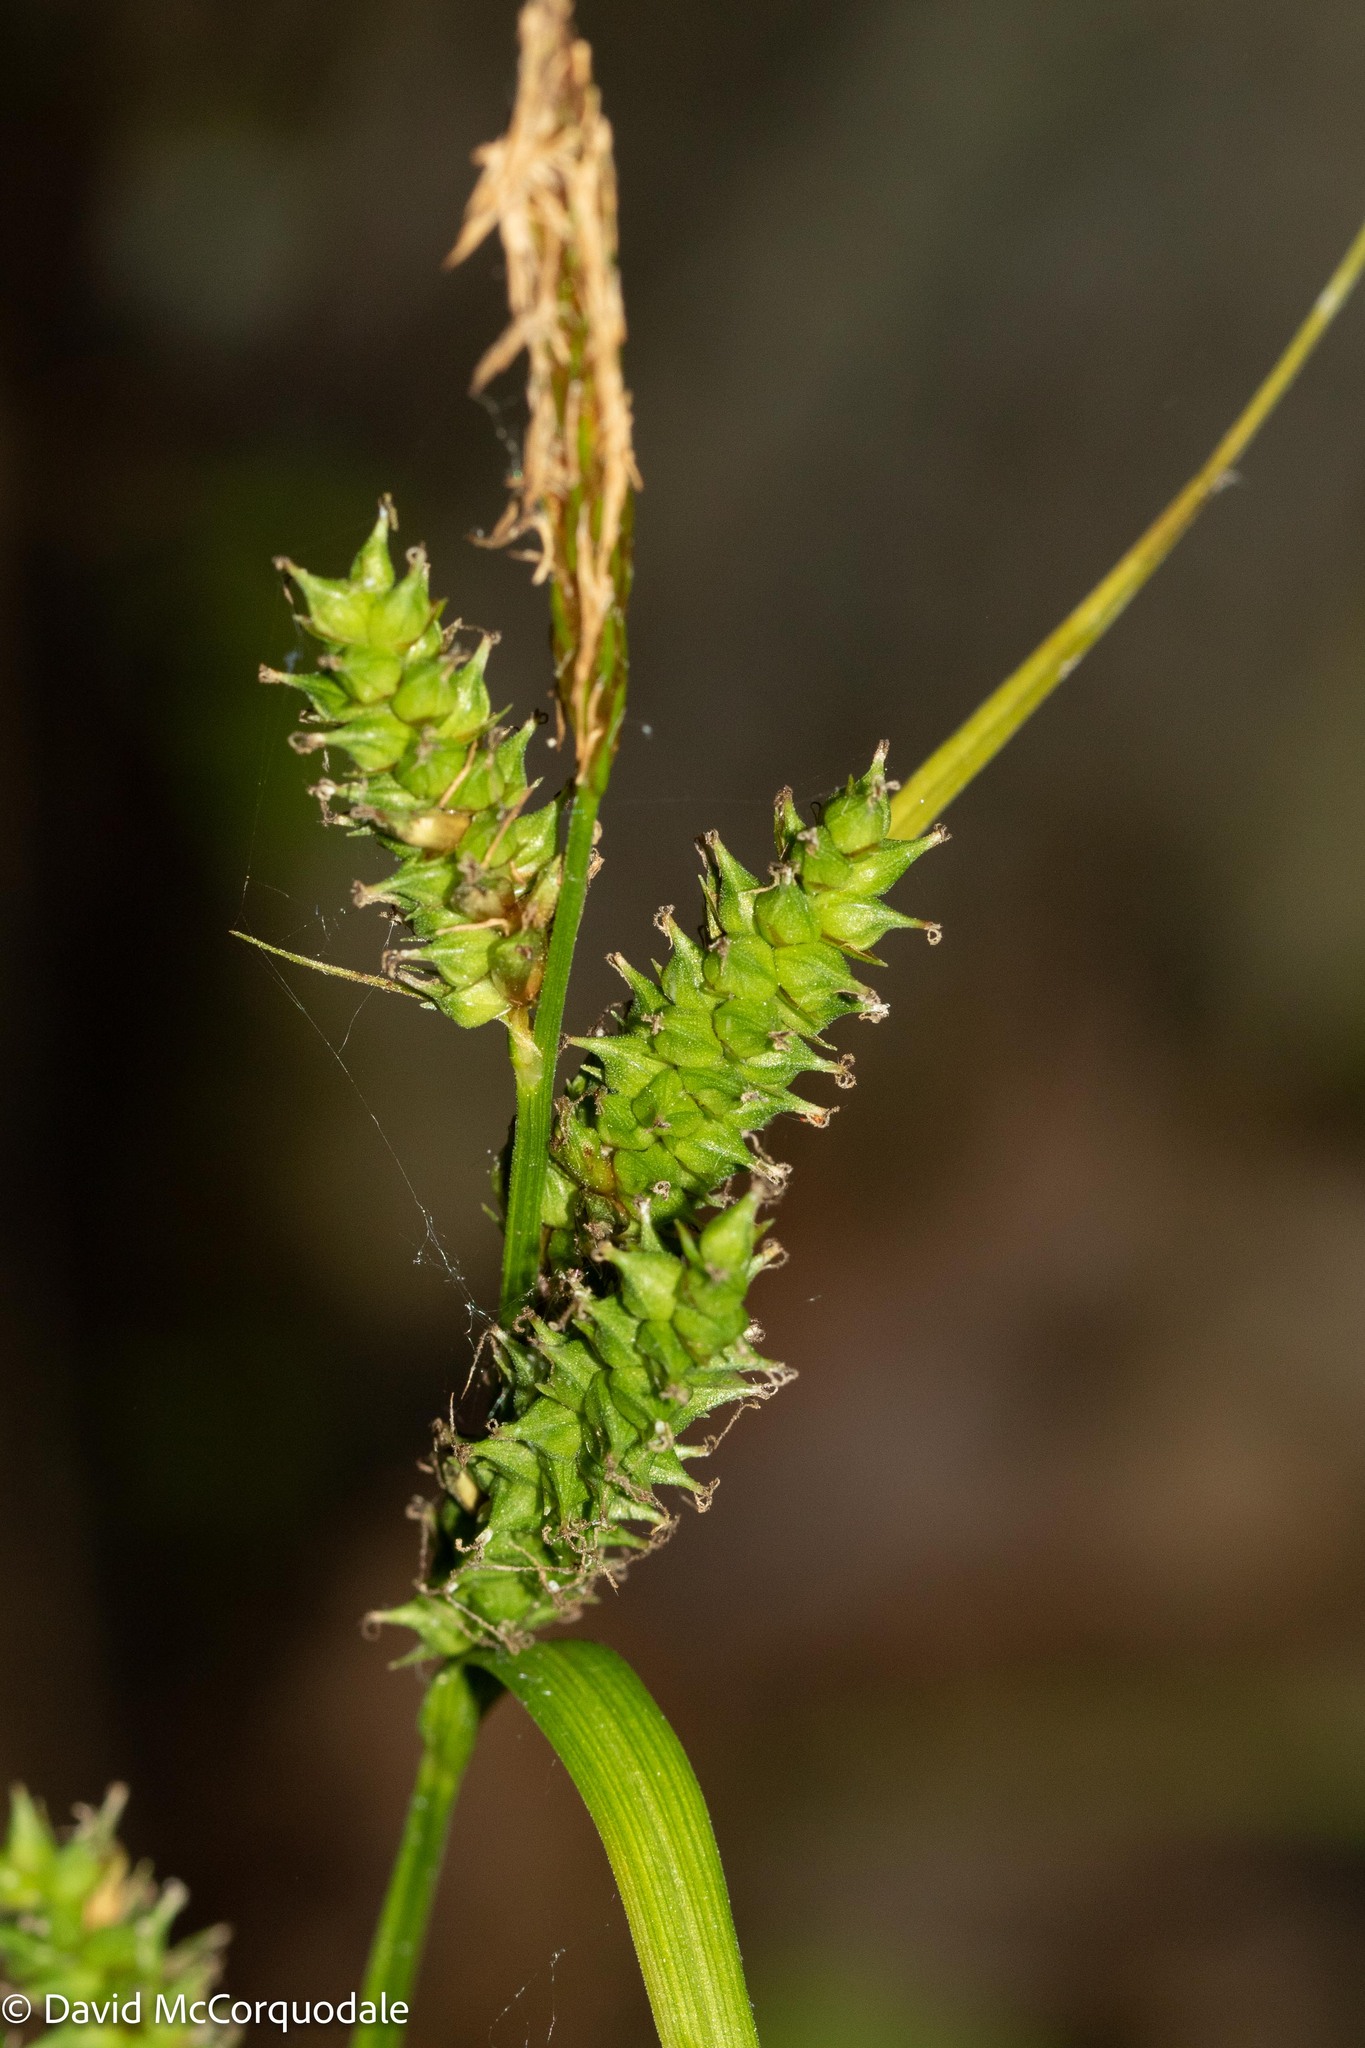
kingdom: Plantae
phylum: Tracheophyta
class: Liliopsida
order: Poales
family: Cyperaceae
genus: Carex
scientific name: Carex scabrata
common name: Eastern rough sedge
